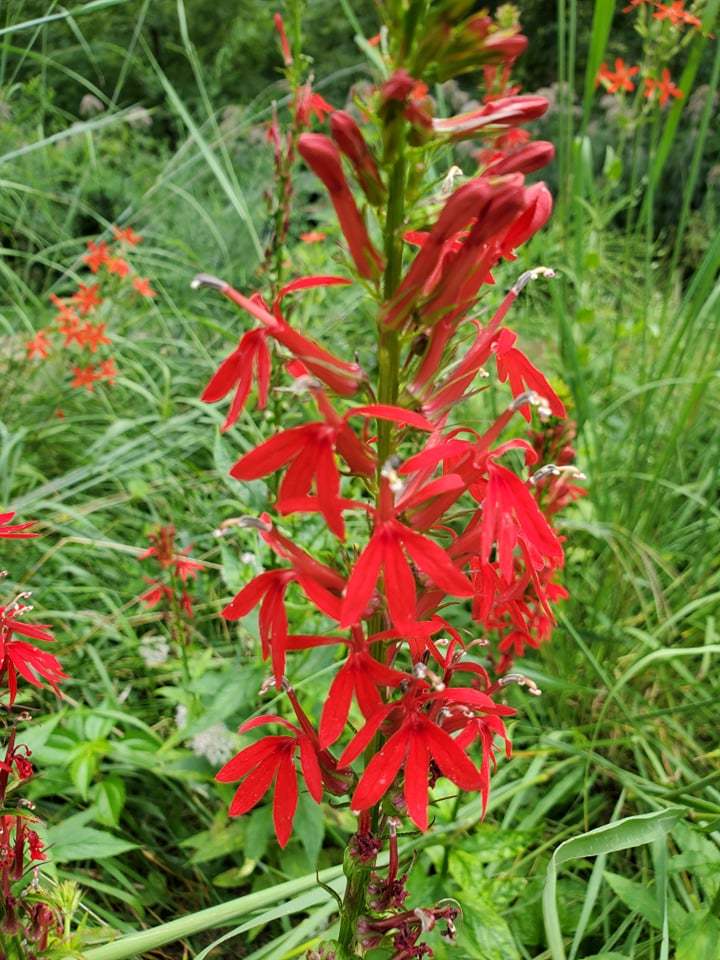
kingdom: Plantae
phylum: Tracheophyta
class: Magnoliopsida
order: Asterales
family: Campanulaceae
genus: Lobelia
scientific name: Lobelia cardinalis
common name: Cardinal flower
